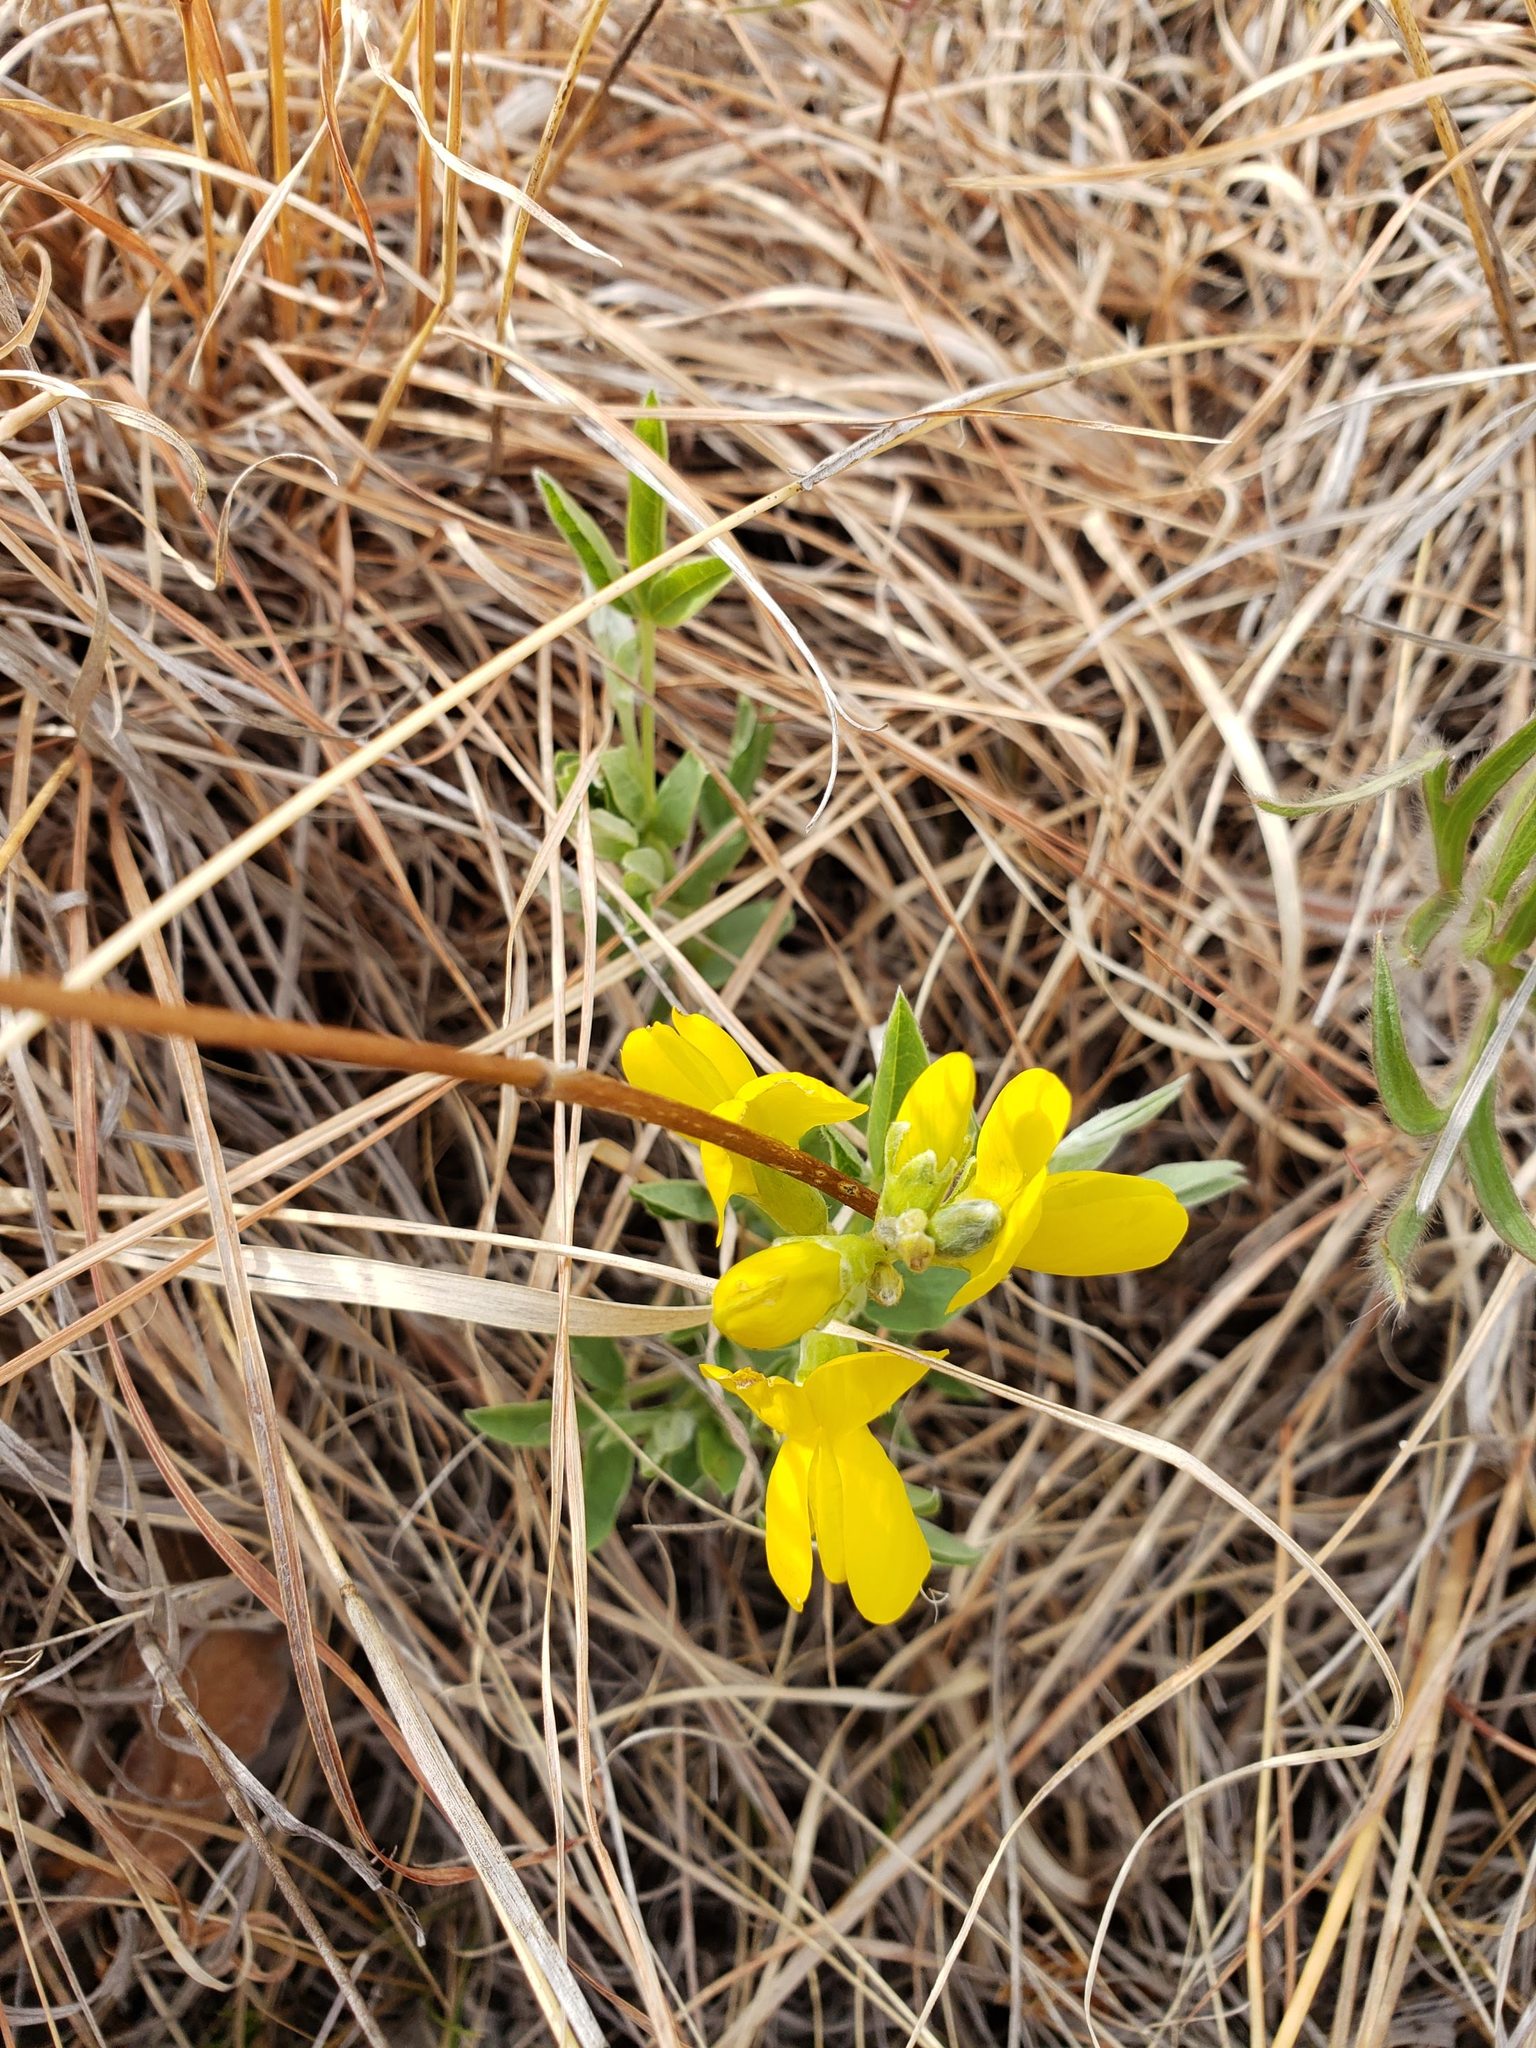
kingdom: Plantae
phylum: Tracheophyta
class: Magnoliopsida
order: Fabales
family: Fabaceae
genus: Thermopsis
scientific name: Thermopsis rhombifolia
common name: Circle-pod-pea
